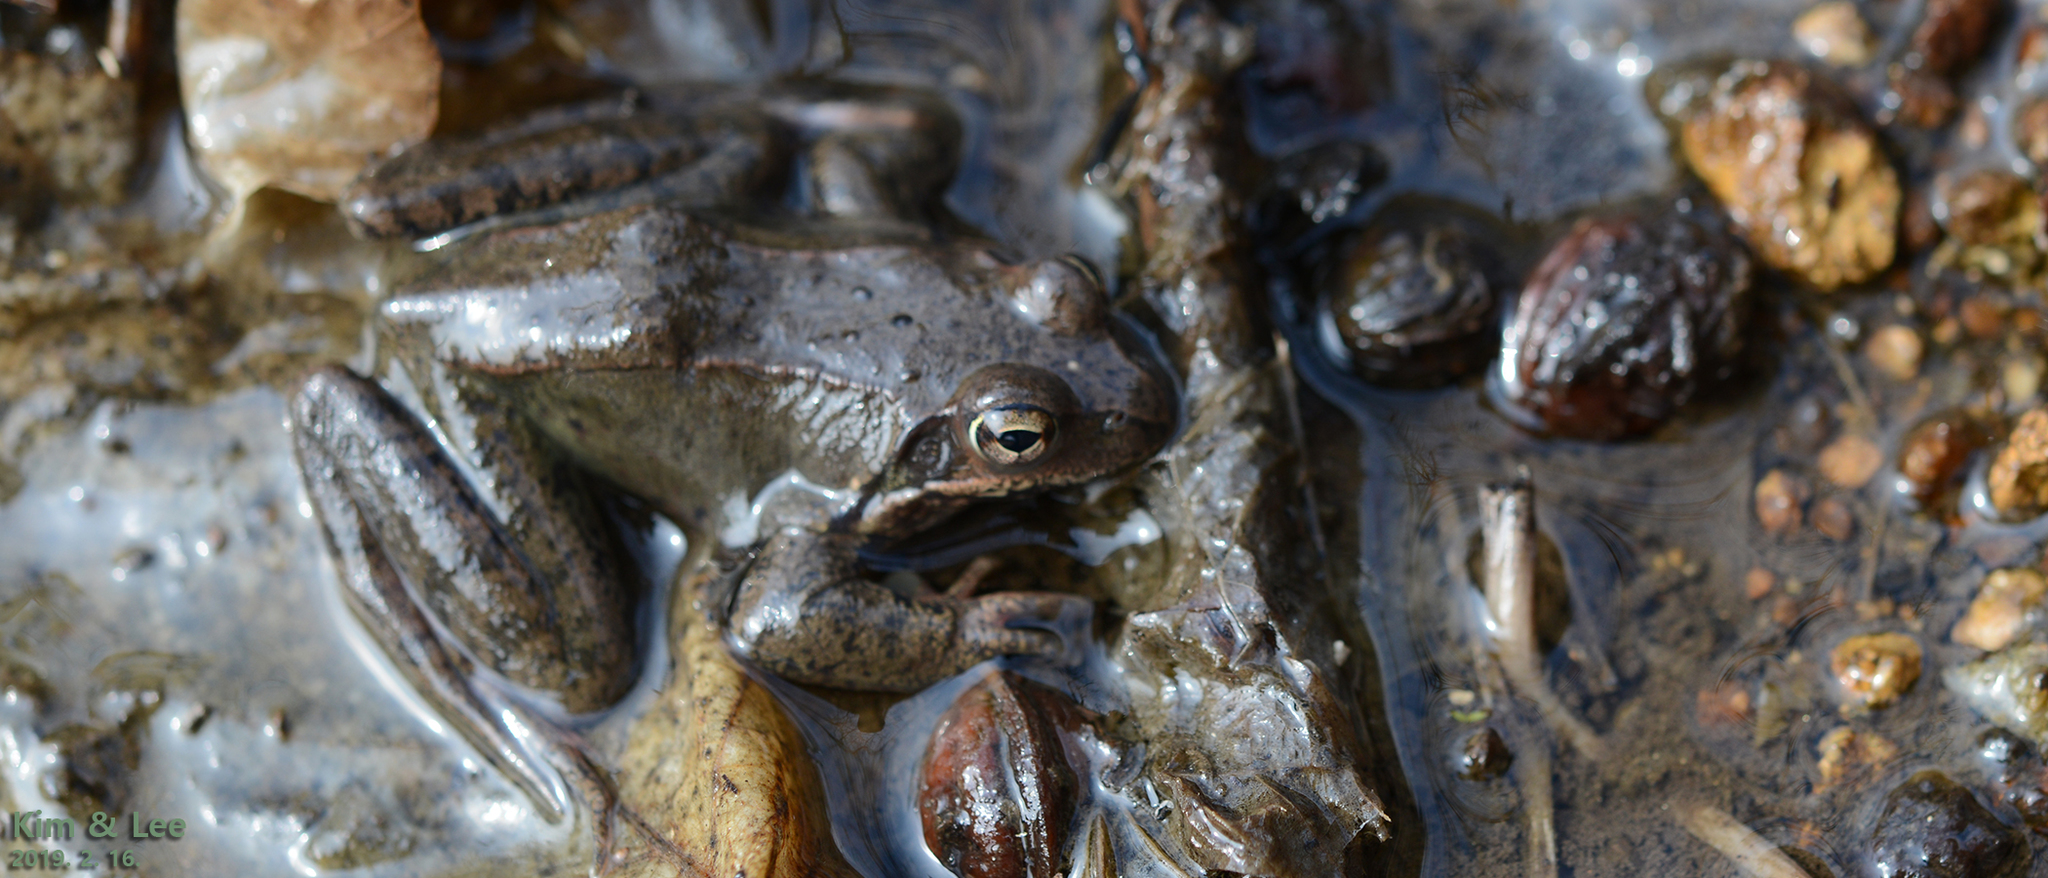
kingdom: Animalia
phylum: Chordata
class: Amphibia
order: Anura
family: Ranidae
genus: Rana
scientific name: Rana dybowskii
